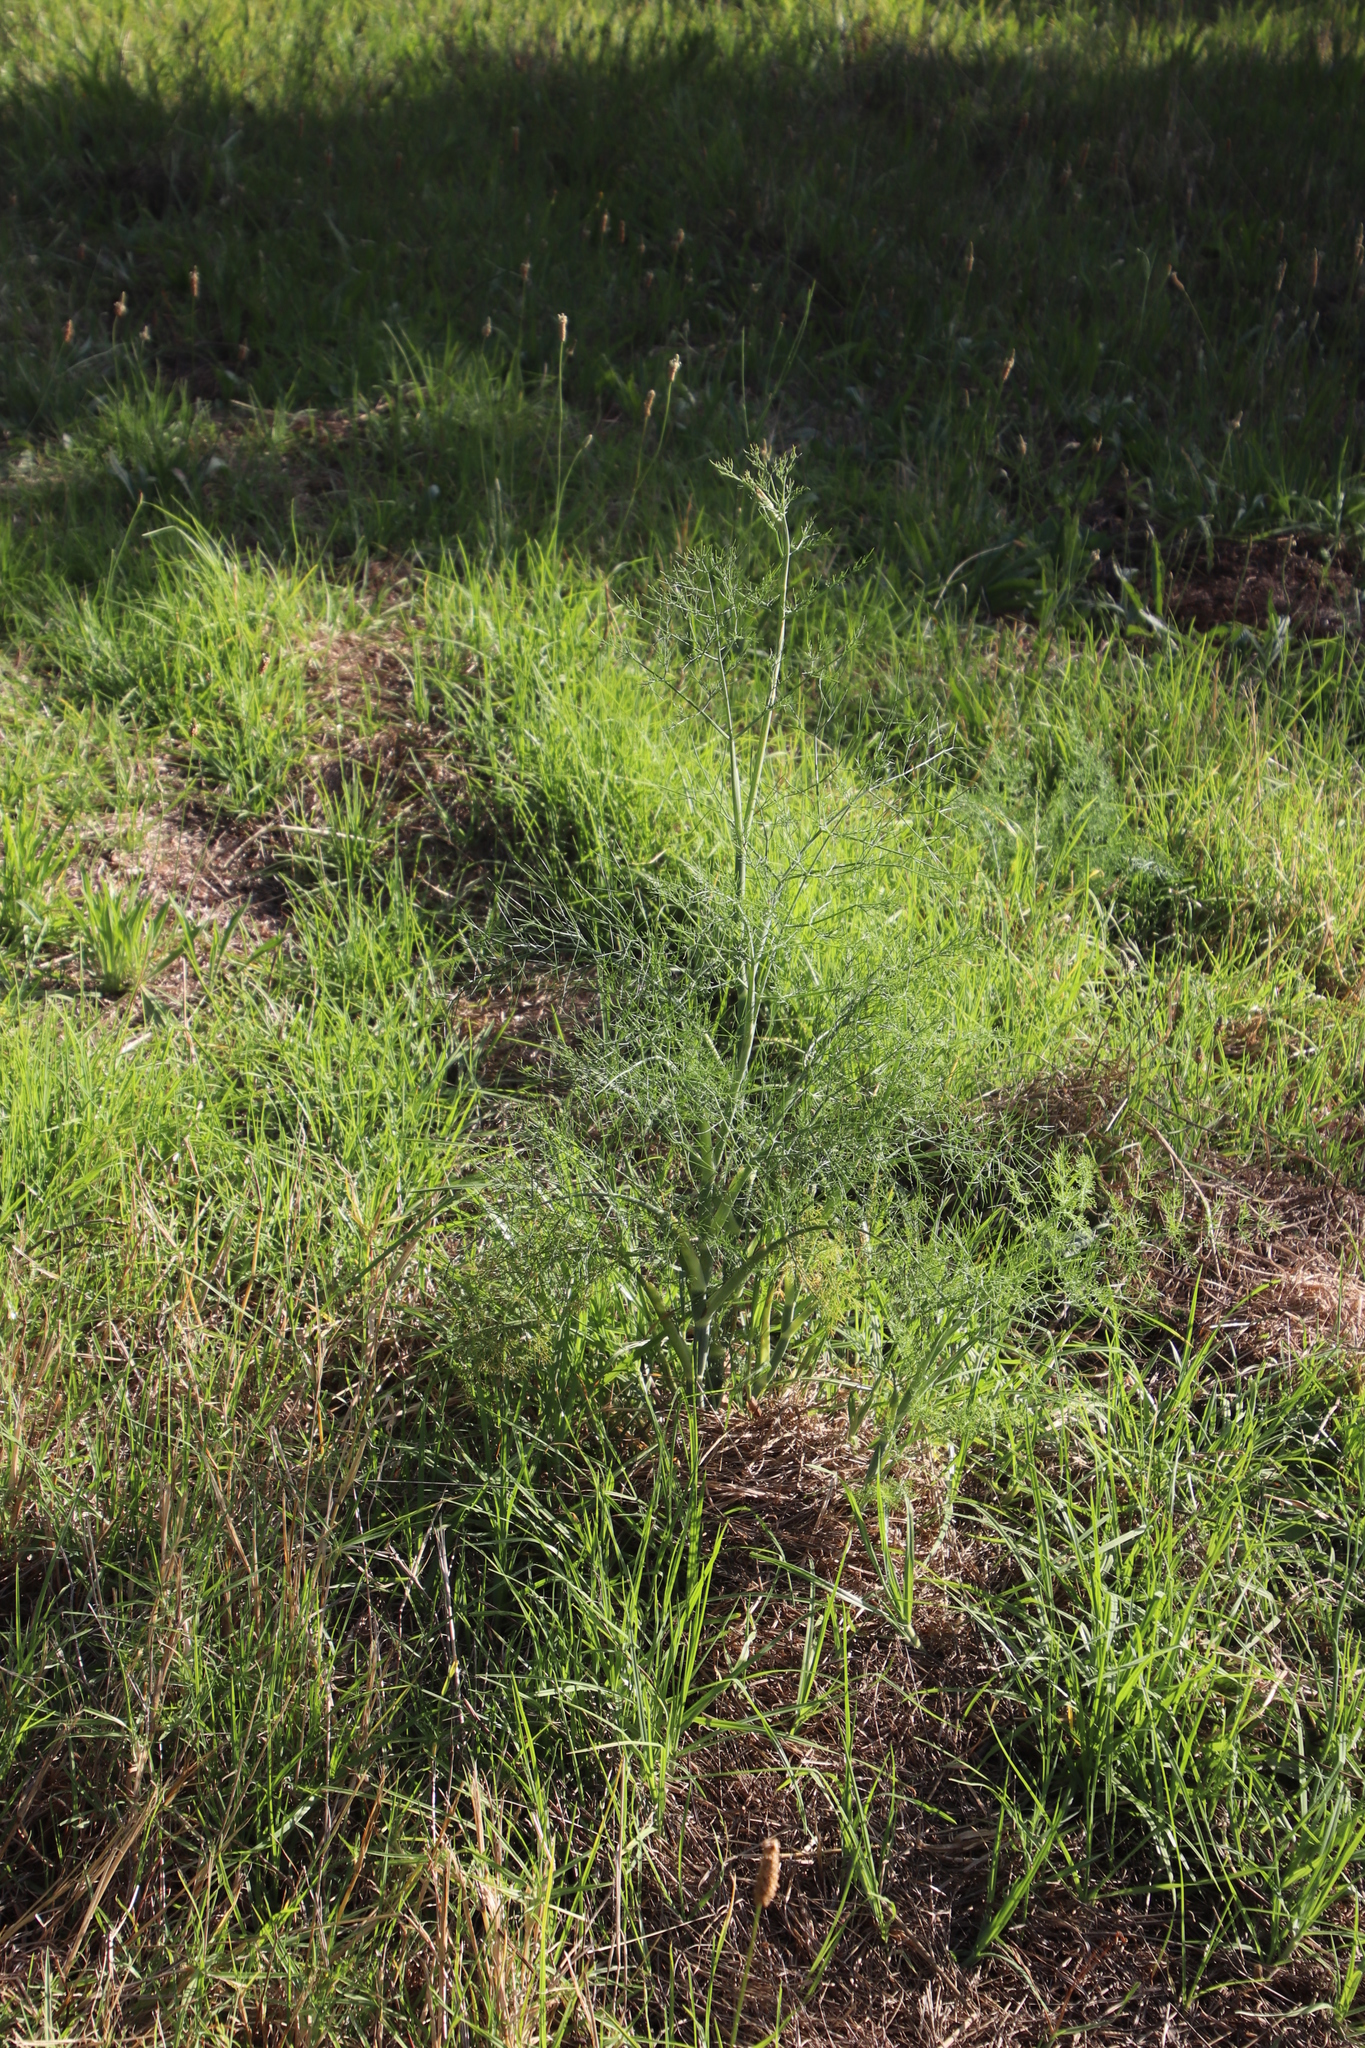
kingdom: Plantae
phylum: Tracheophyta
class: Magnoliopsida
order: Apiales
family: Apiaceae
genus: Foeniculum
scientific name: Foeniculum vulgare
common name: Fennel
